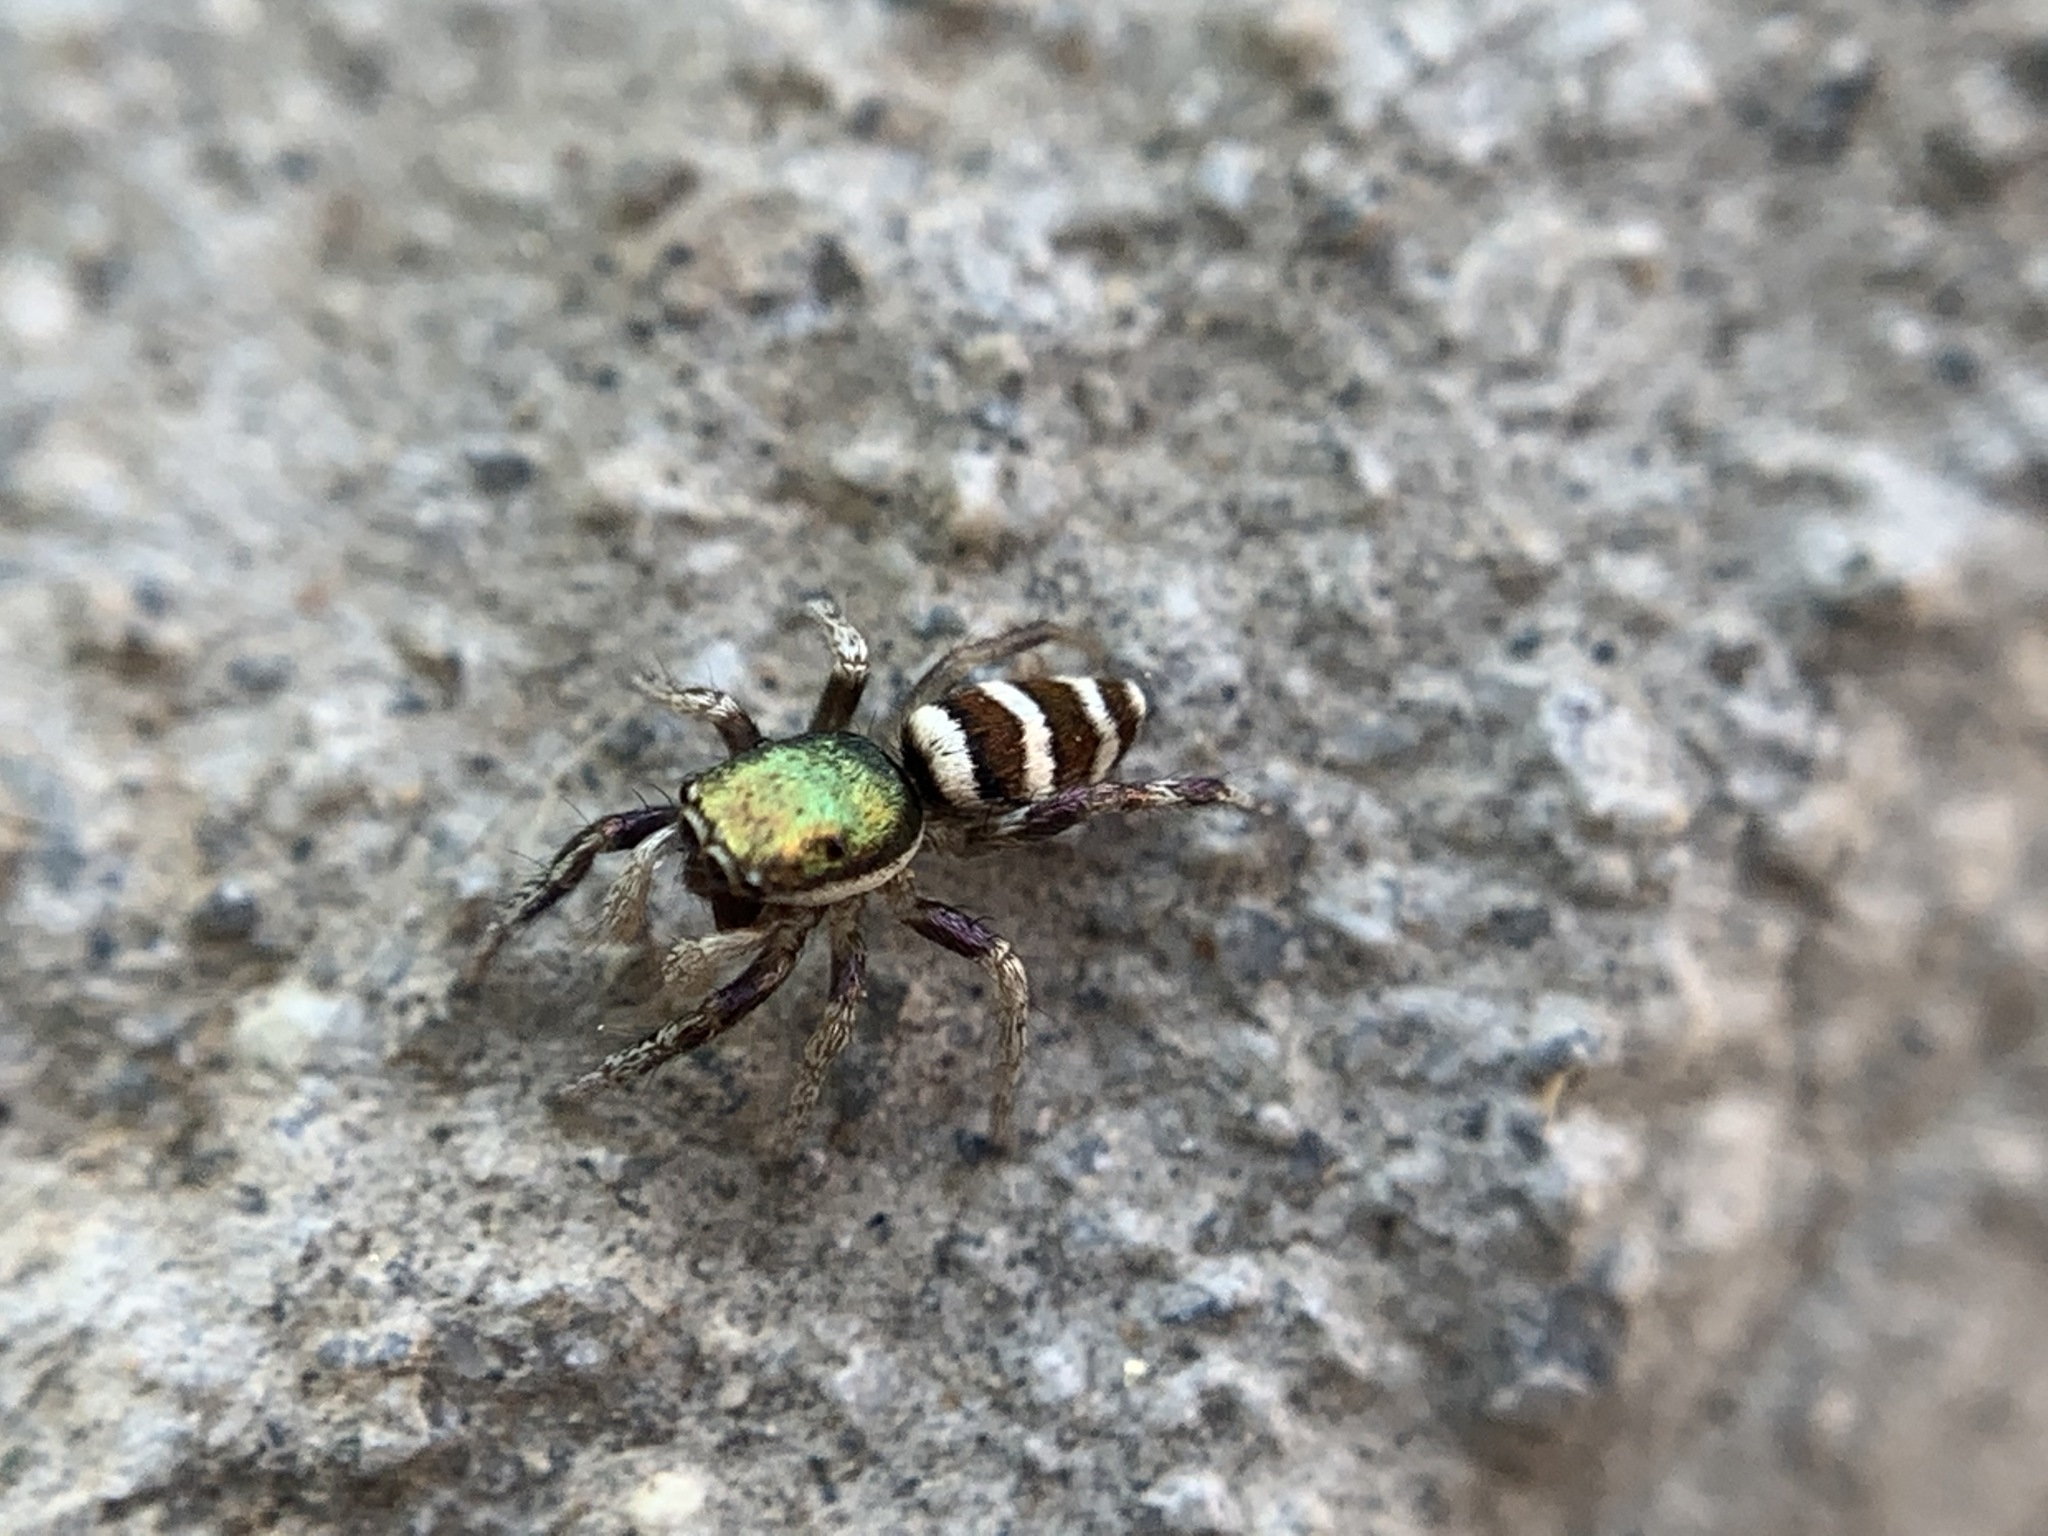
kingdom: Animalia
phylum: Arthropoda
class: Arachnida
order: Araneae
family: Salticidae
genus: Salticus
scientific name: Salticus palpalis
